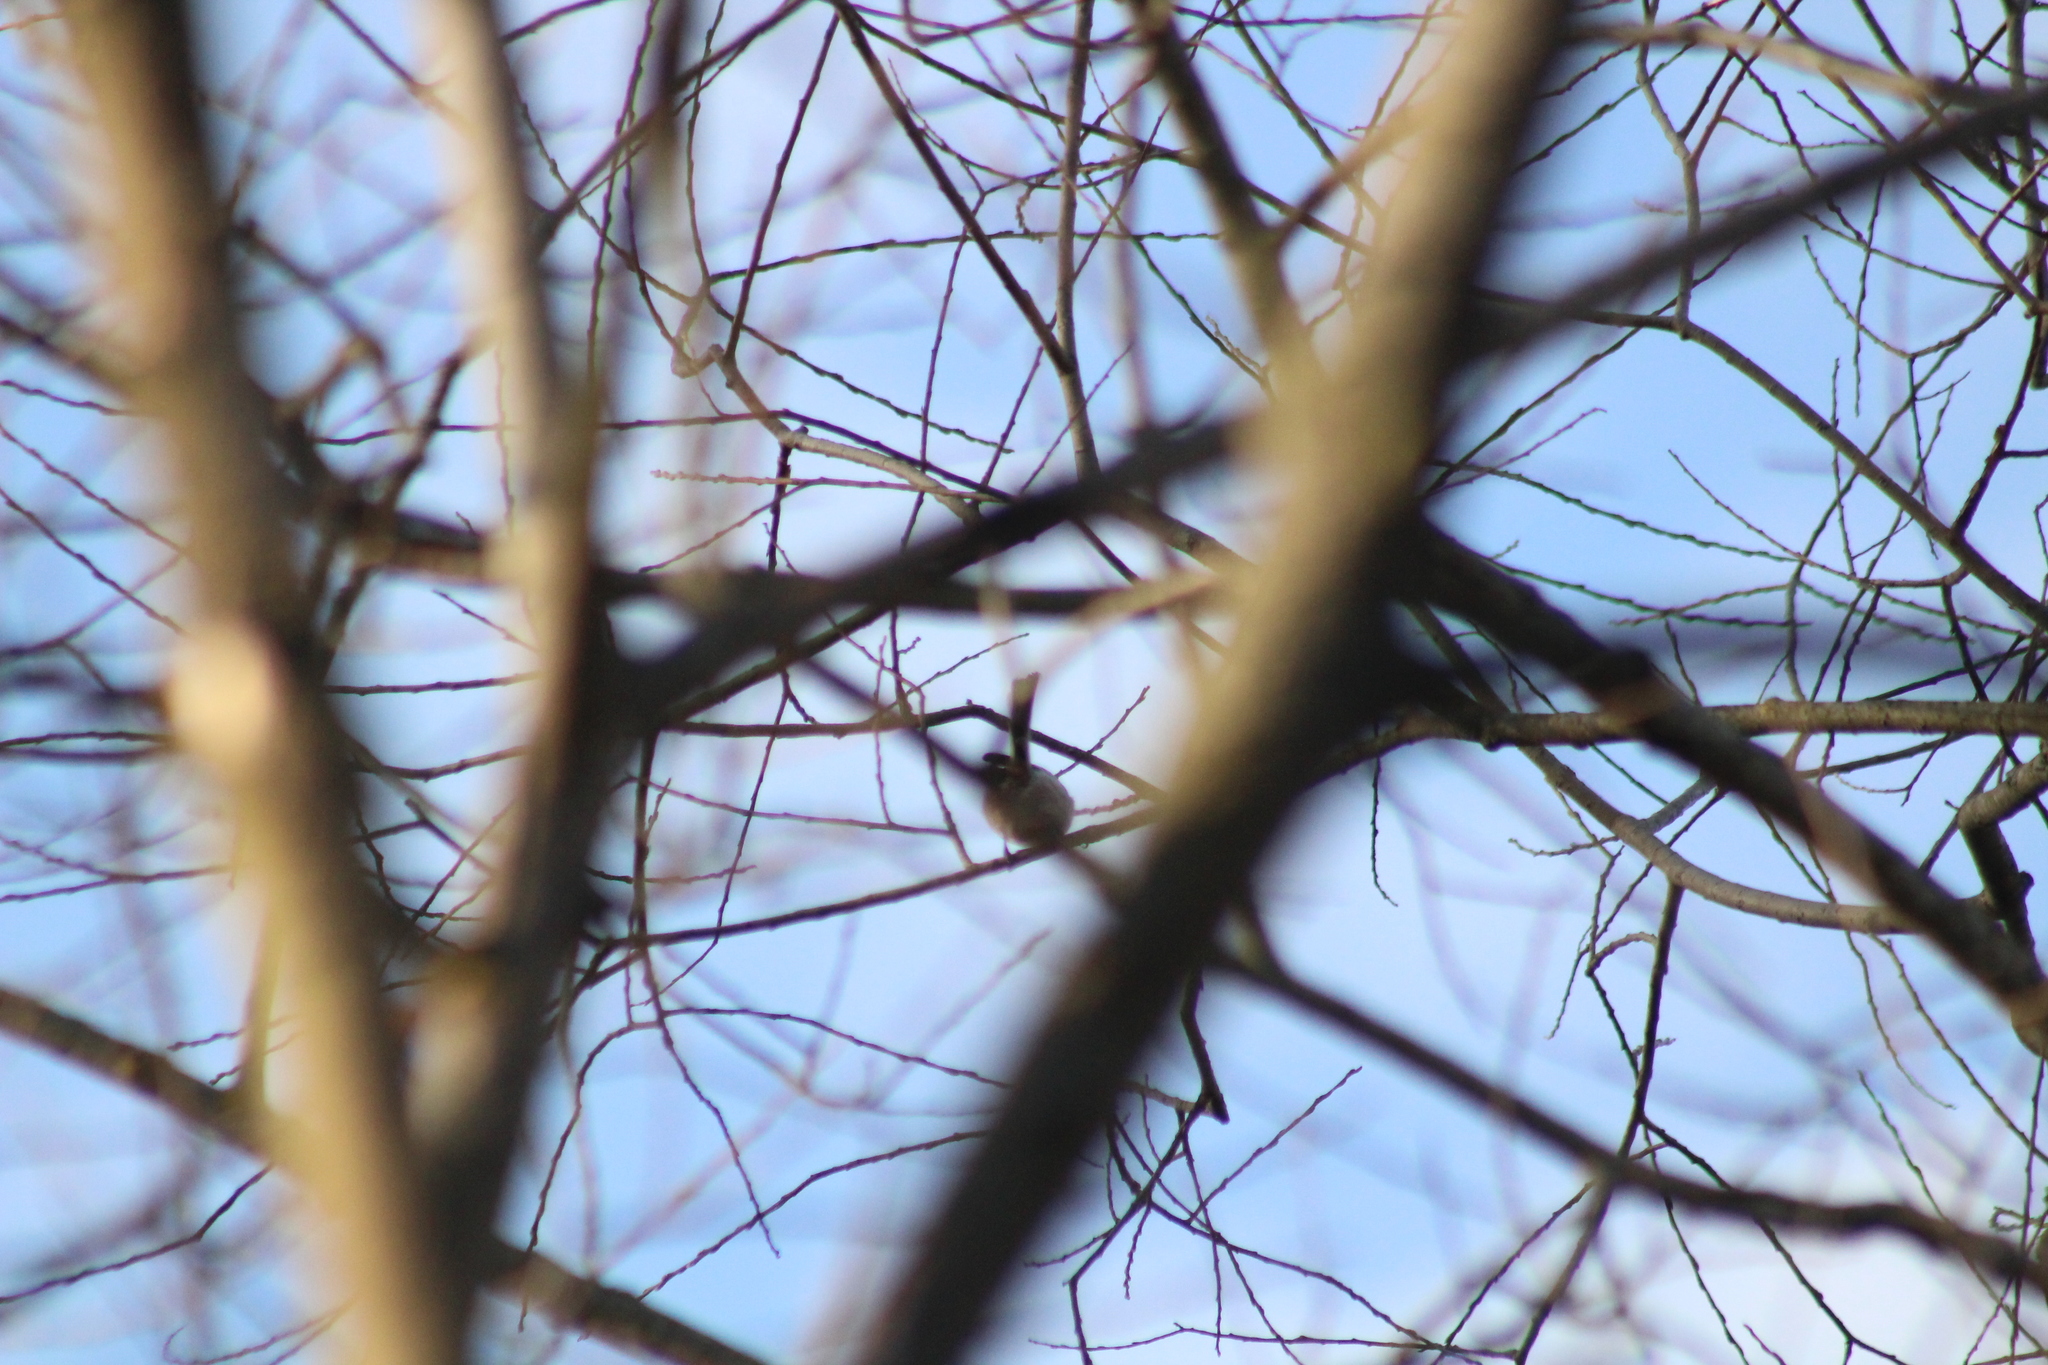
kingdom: Animalia
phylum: Chordata
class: Aves
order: Passeriformes
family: Aegithalidae
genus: Aegithalos
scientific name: Aegithalos caudatus
